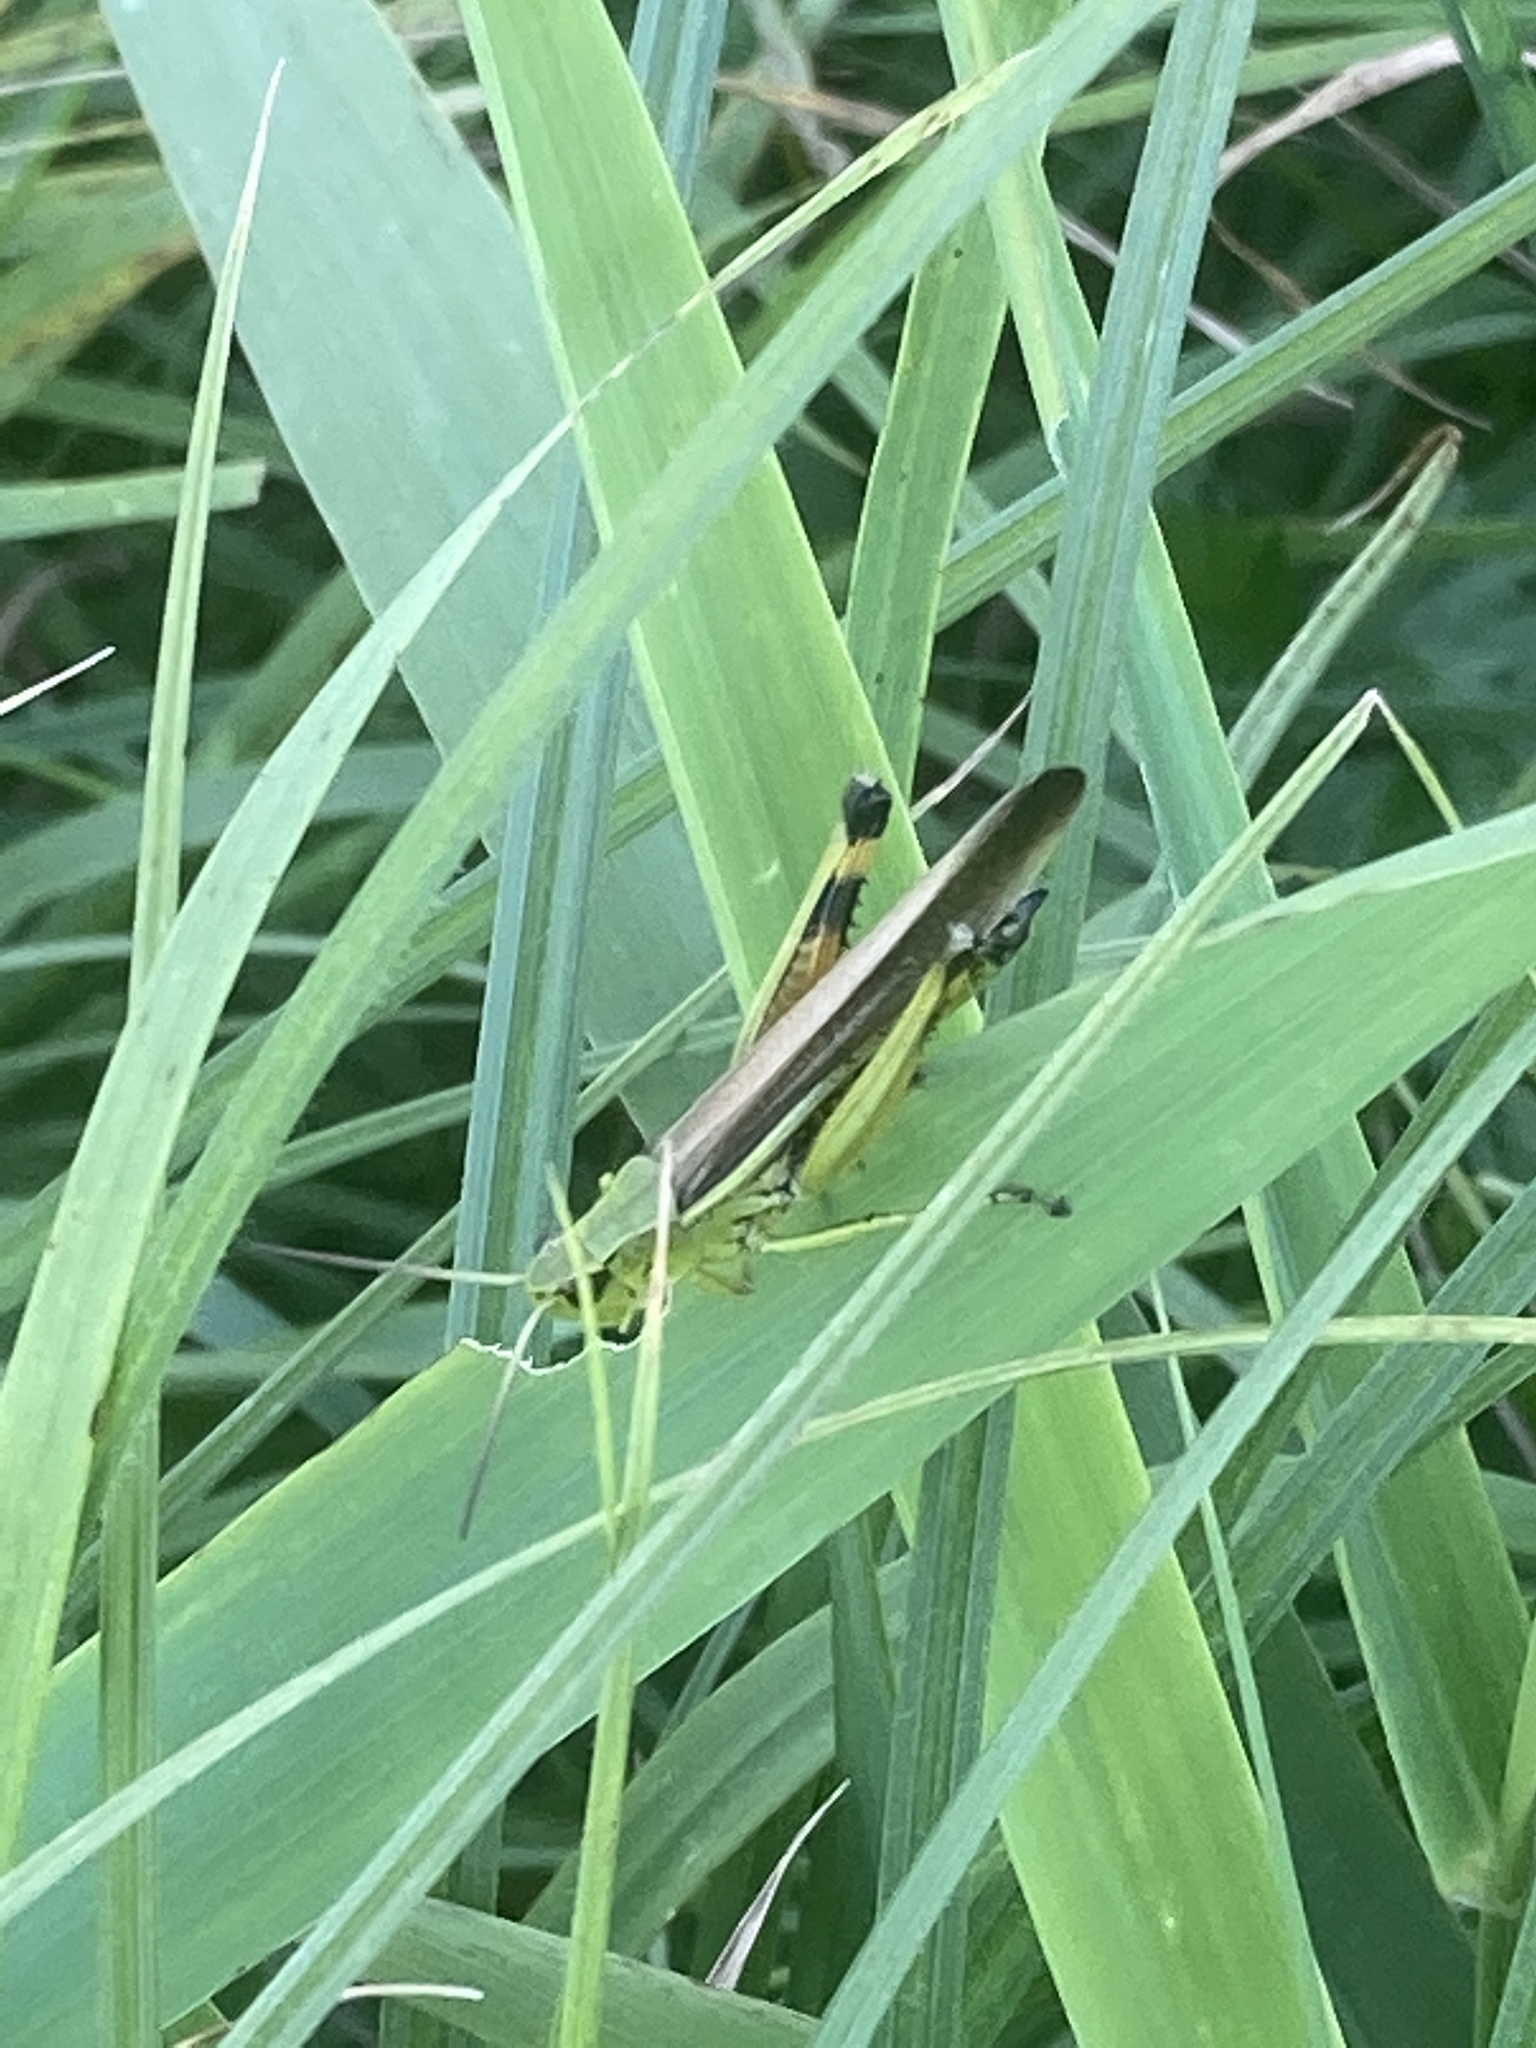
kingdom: Animalia
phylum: Arthropoda
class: Insecta
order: Orthoptera
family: Acrididae
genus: Stethophyma
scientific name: Stethophyma grossum
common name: Large marsh grasshopper
